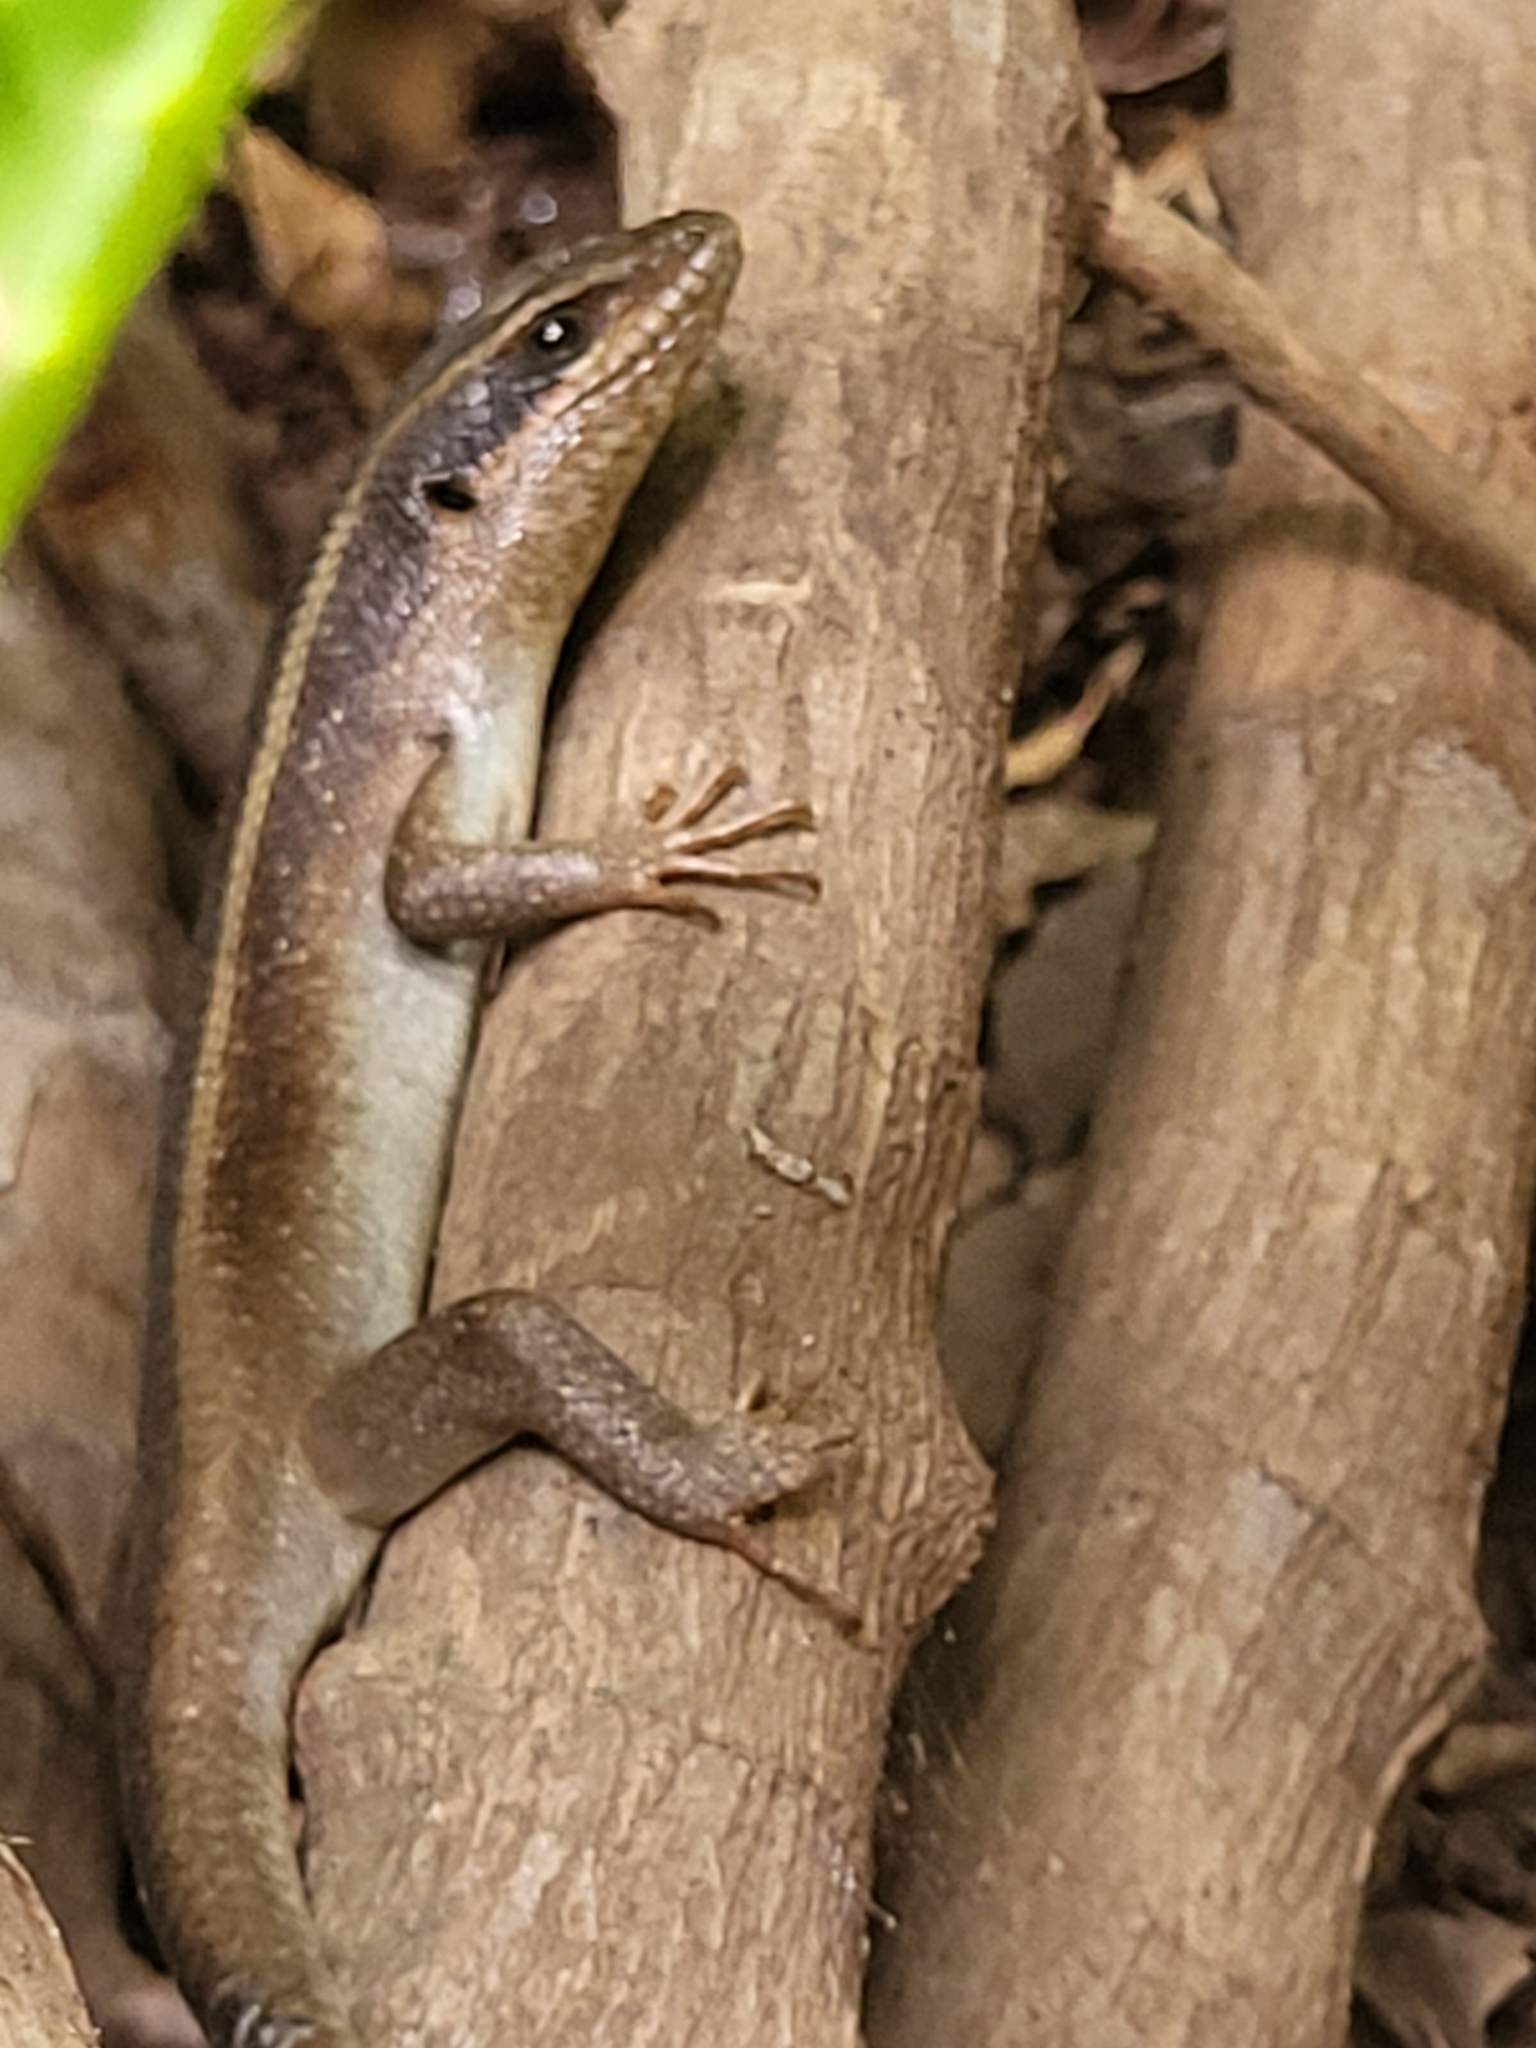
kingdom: Animalia
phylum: Chordata
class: Squamata
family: Scincidae
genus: Trachylepis
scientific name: Trachylepis striata
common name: African striped mabuya
